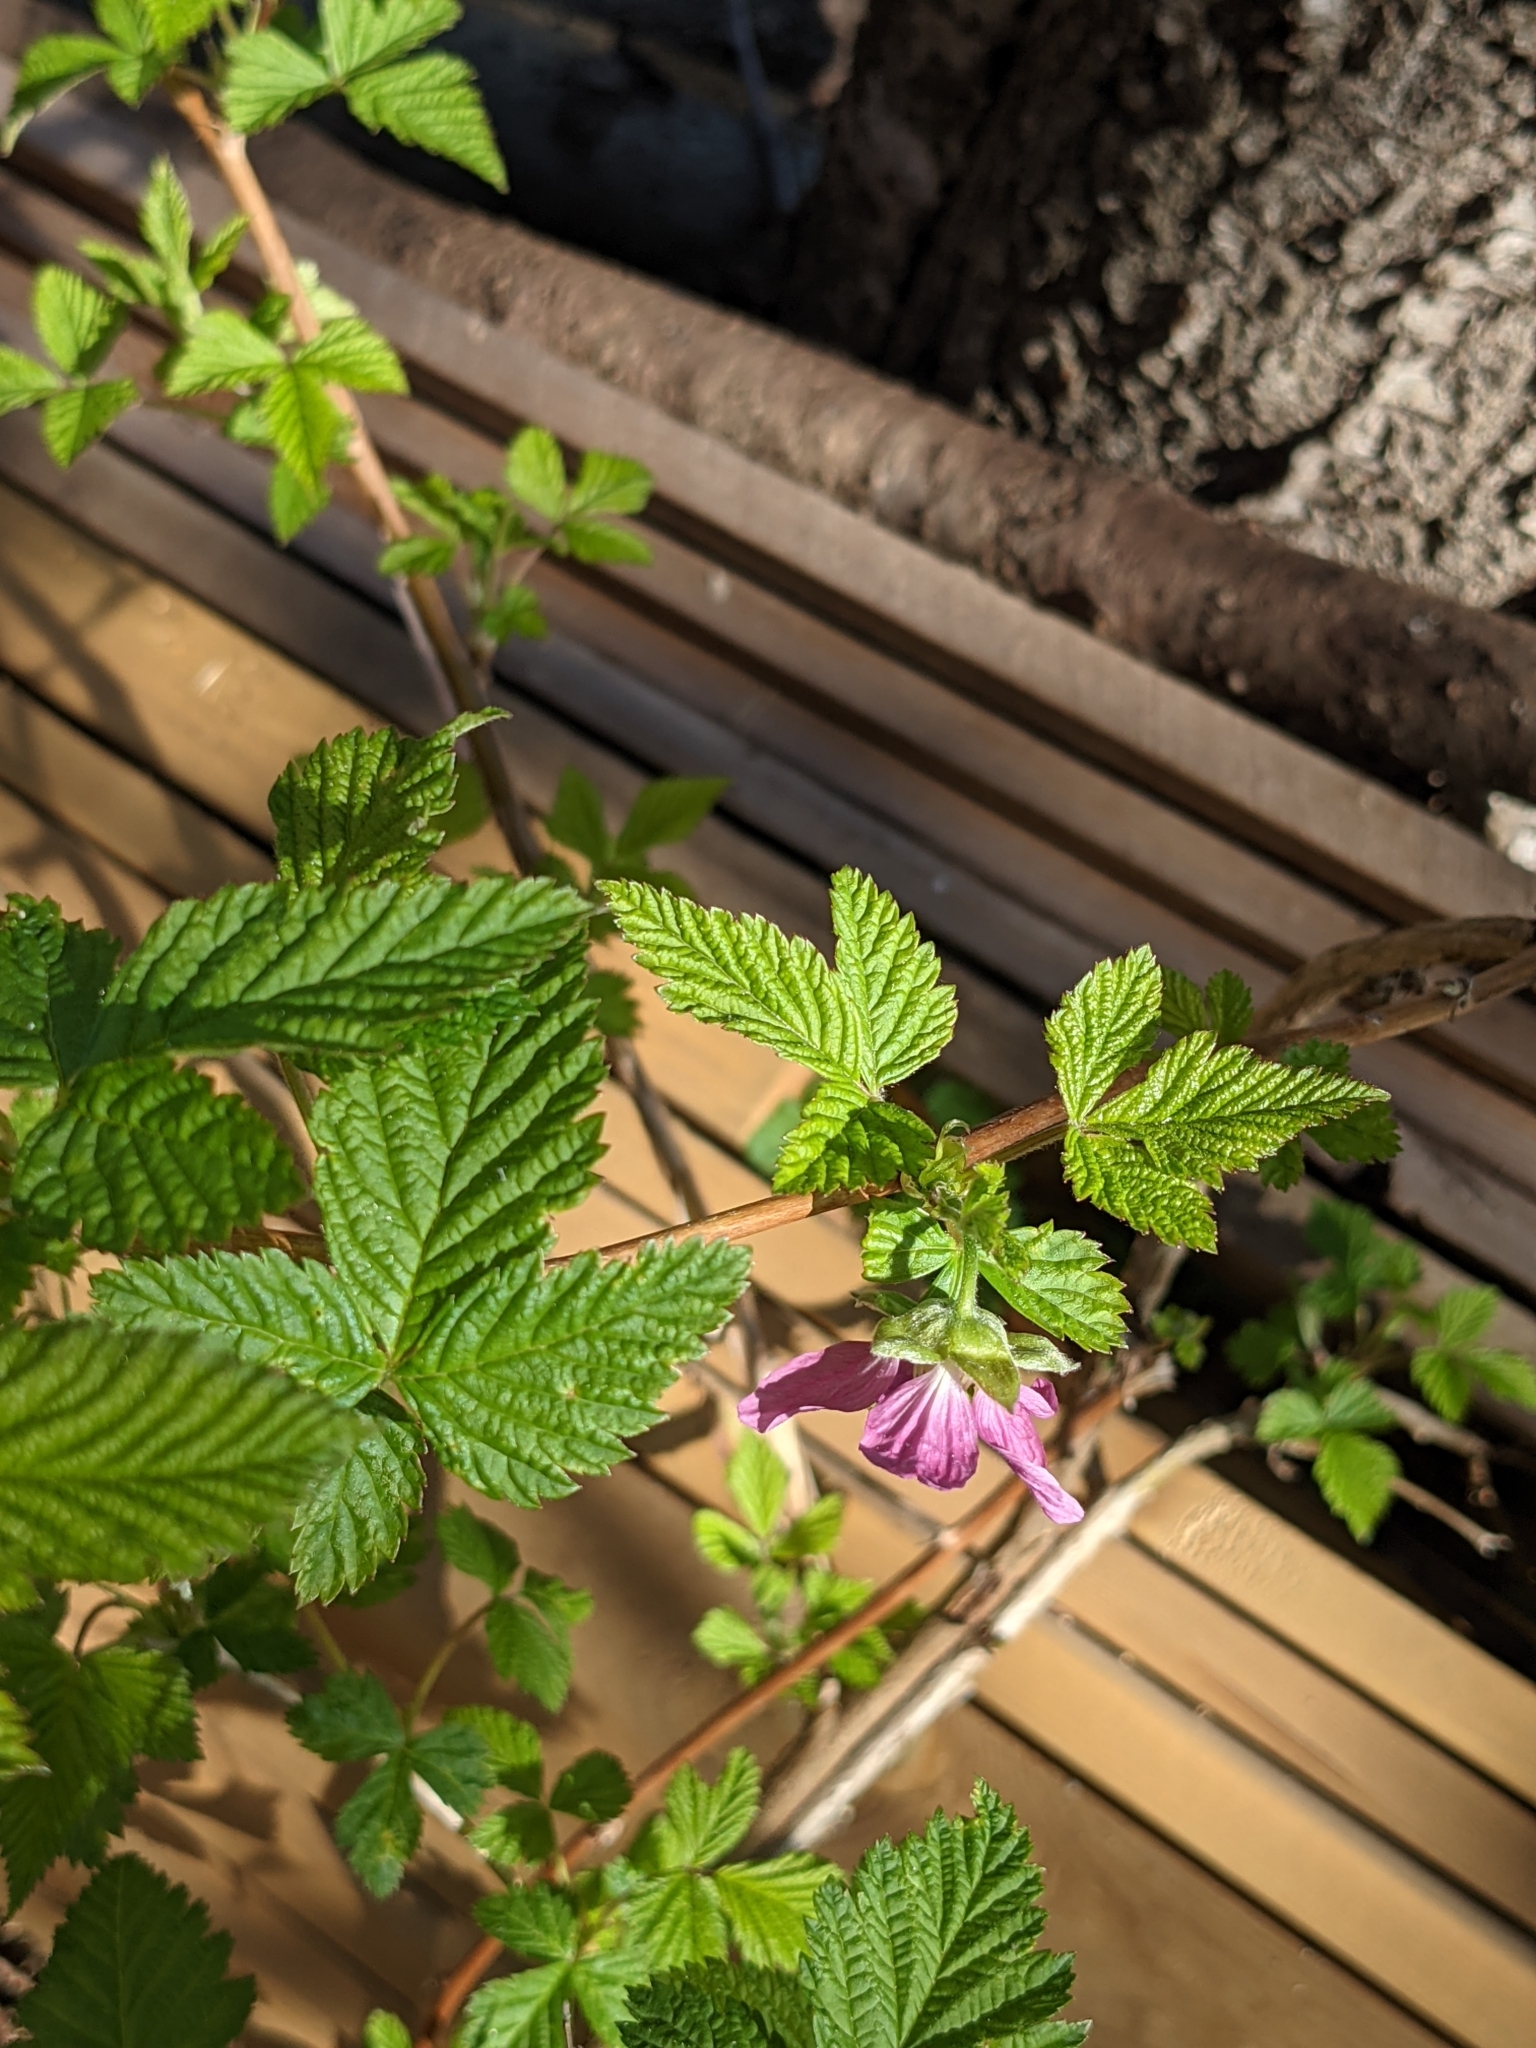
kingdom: Plantae
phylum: Tracheophyta
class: Magnoliopsida
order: Rosales
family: Rosaceae
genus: Rubus
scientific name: Rubus spectabilis
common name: Salmonberry
